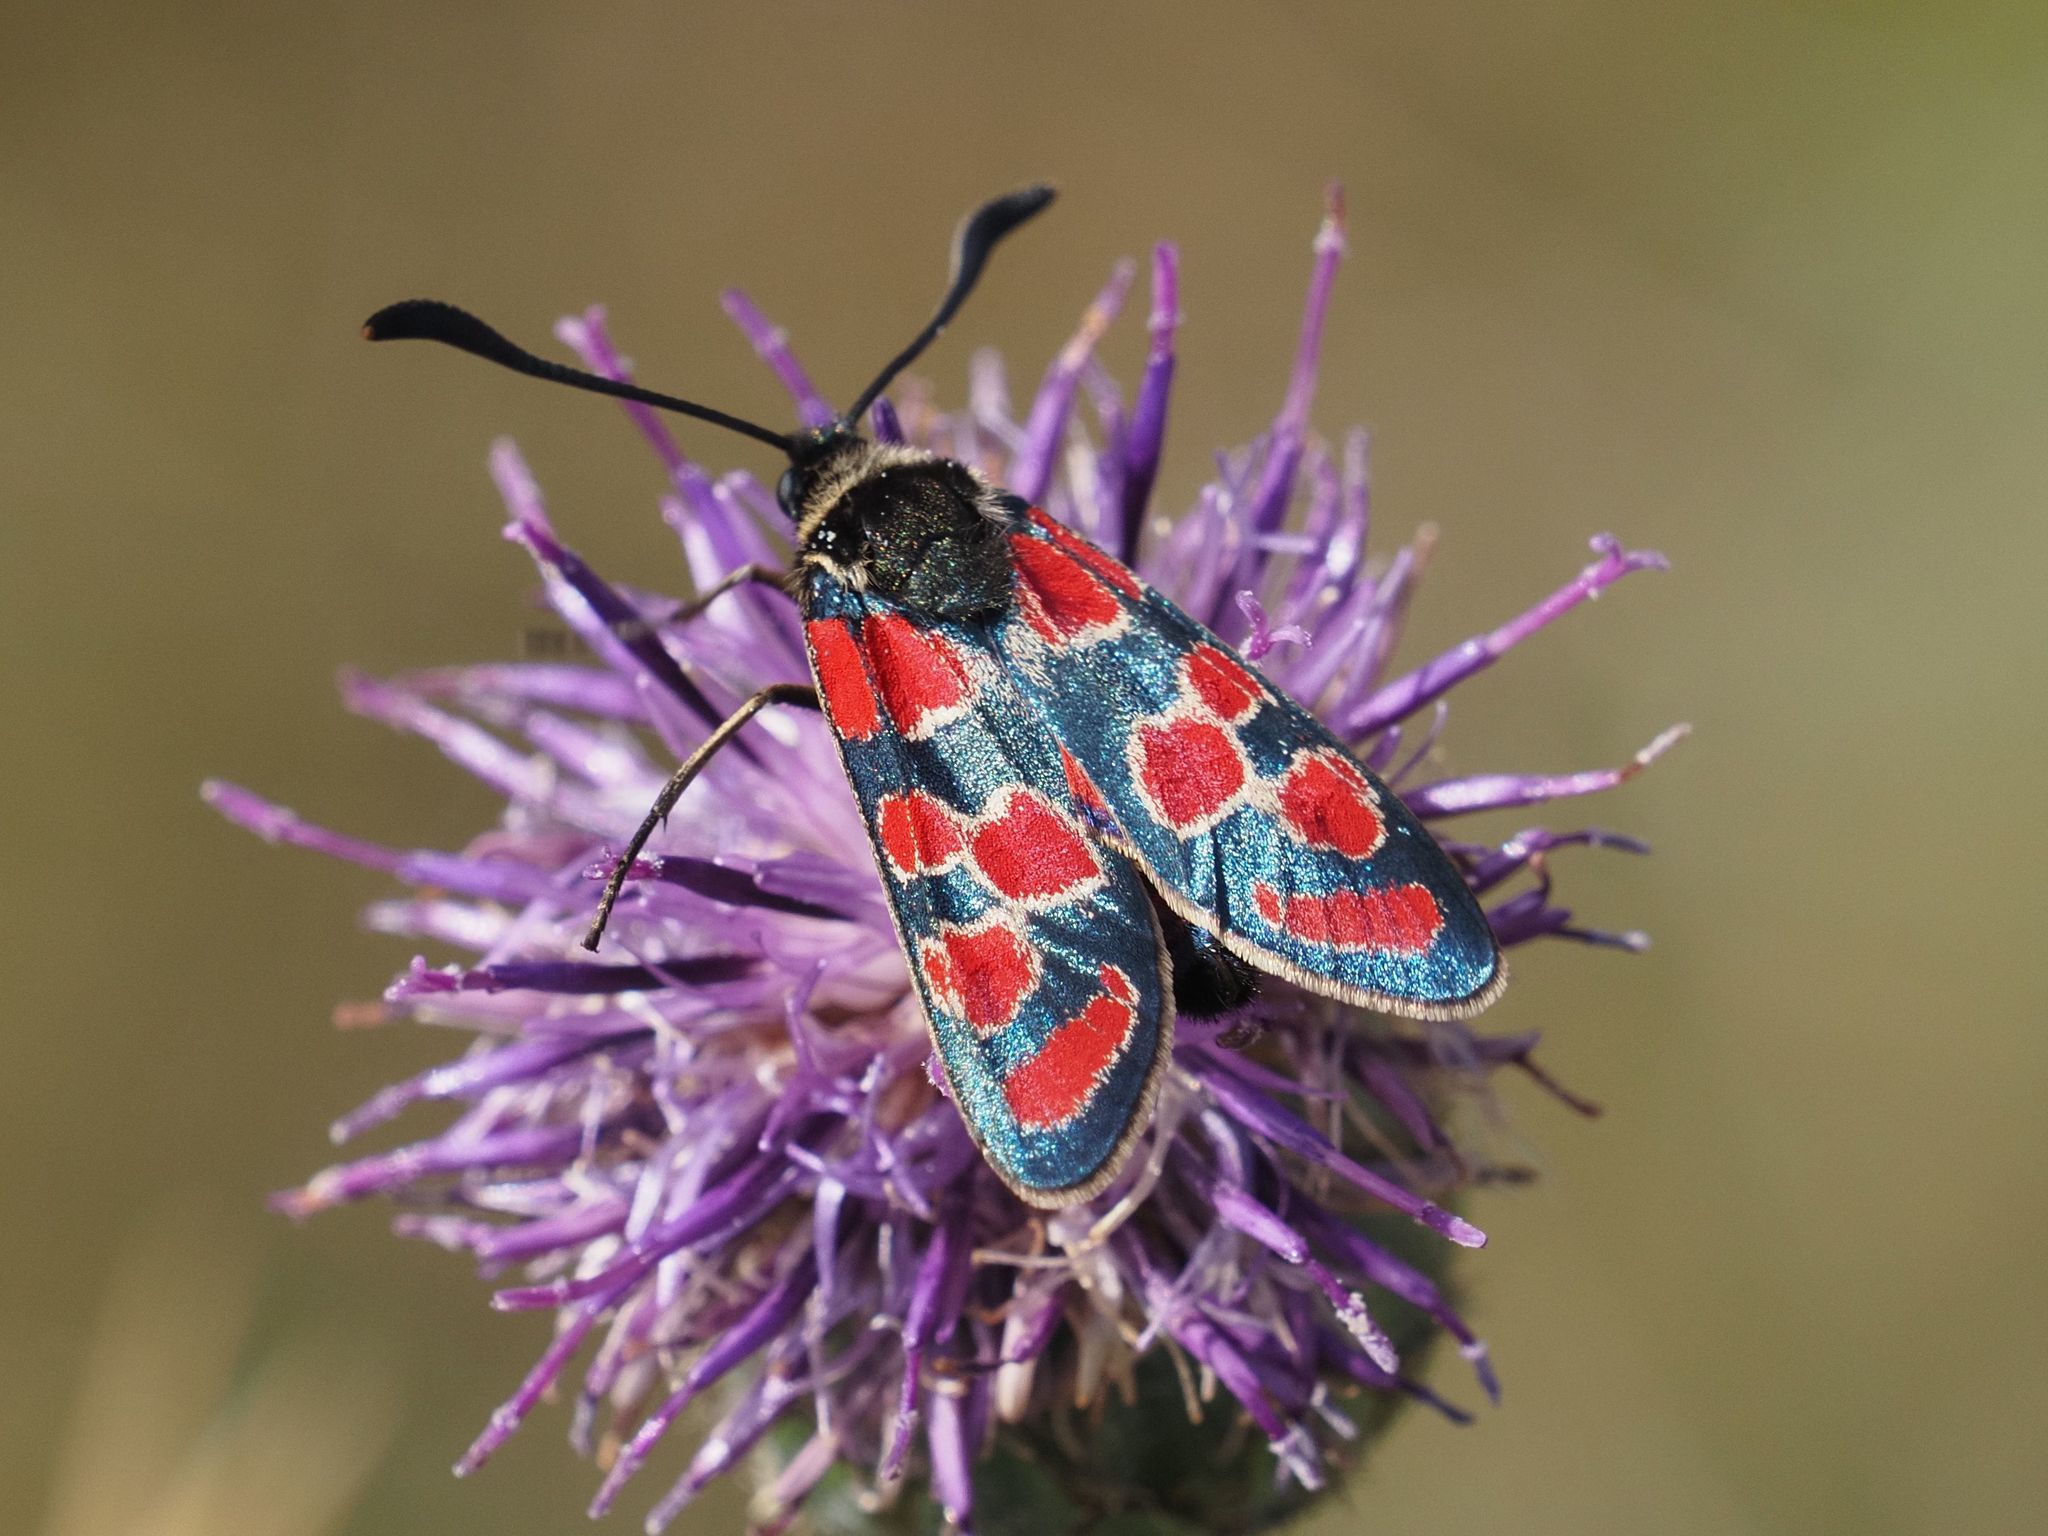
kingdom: Animalia
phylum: Arthropoda
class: Insecta
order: Lepidoptera
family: Zygaenidae
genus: Zygaena
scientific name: Zygaena carniolica
